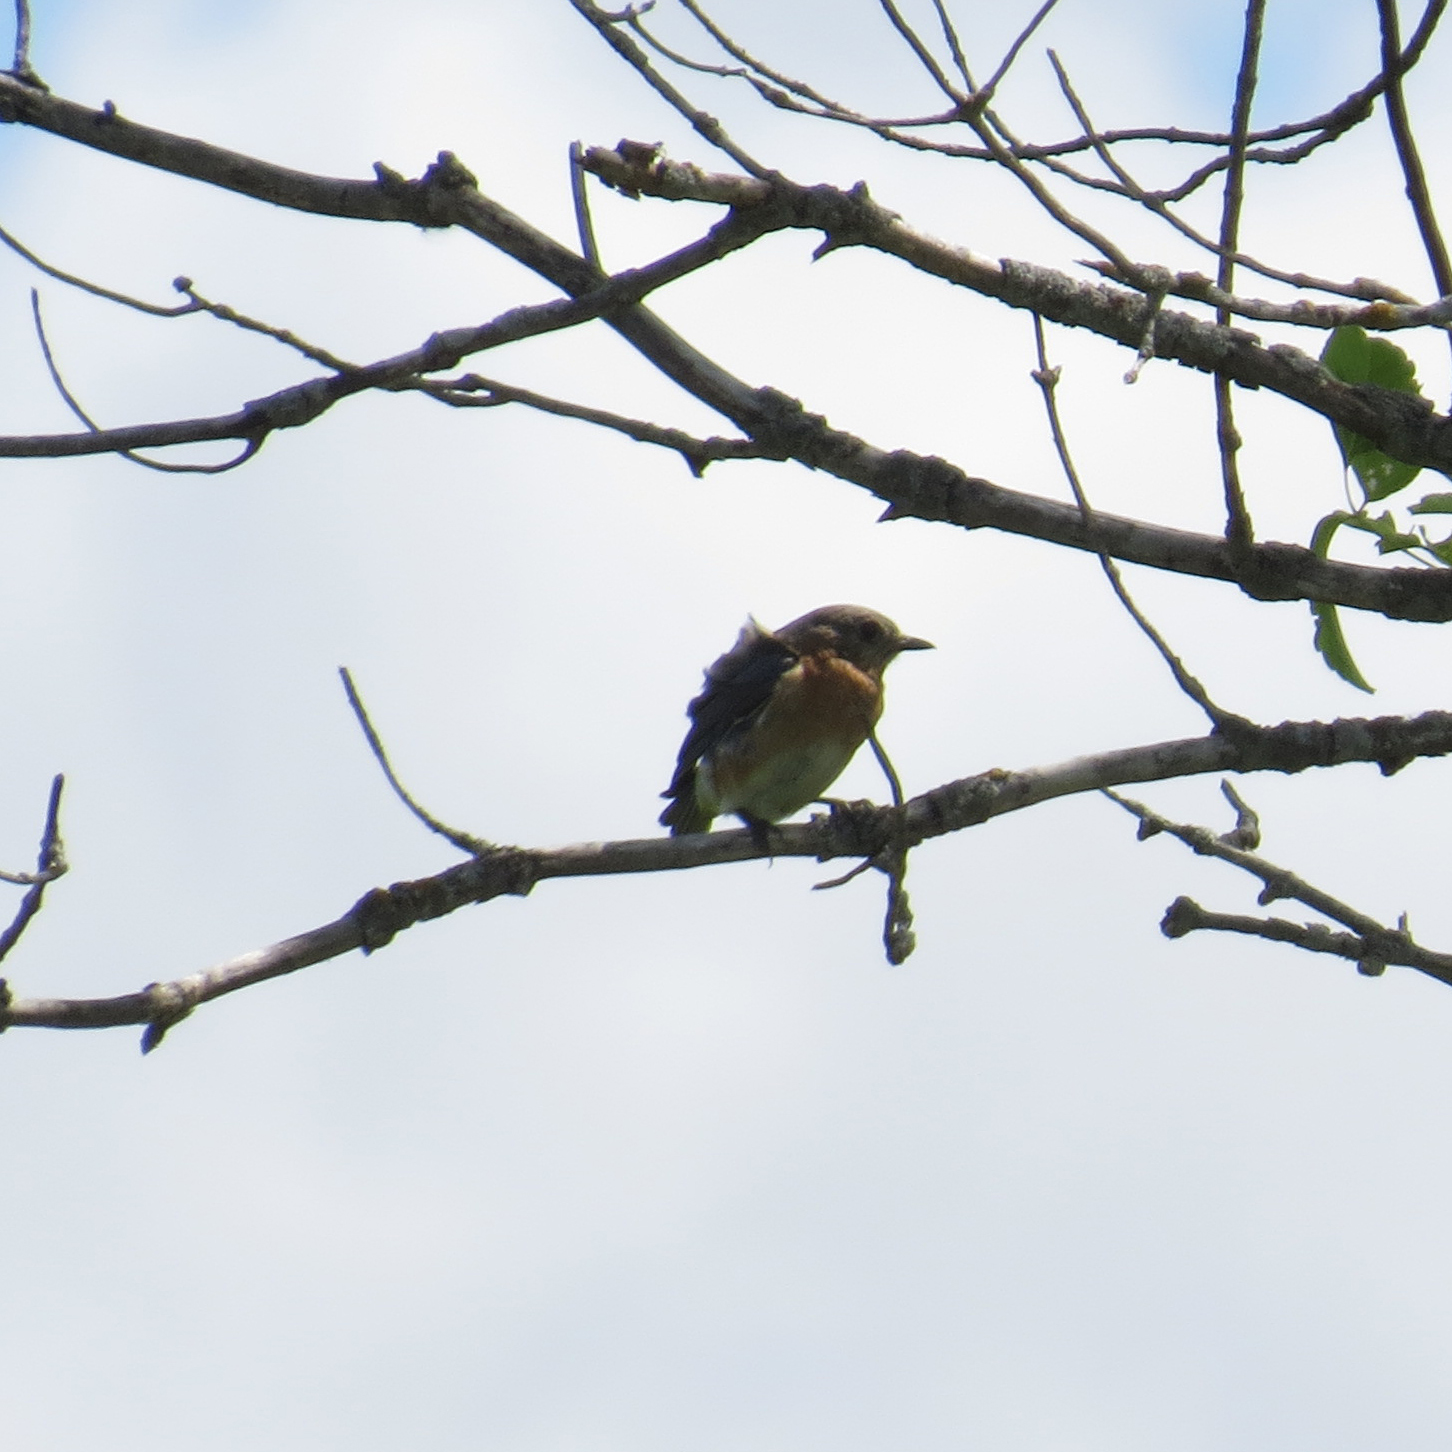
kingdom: Animalia
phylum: Chordata
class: Aves
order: Passeriformes
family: Turdidae
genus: Sialia
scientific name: Sialia sialis
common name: Eastern bluebird
